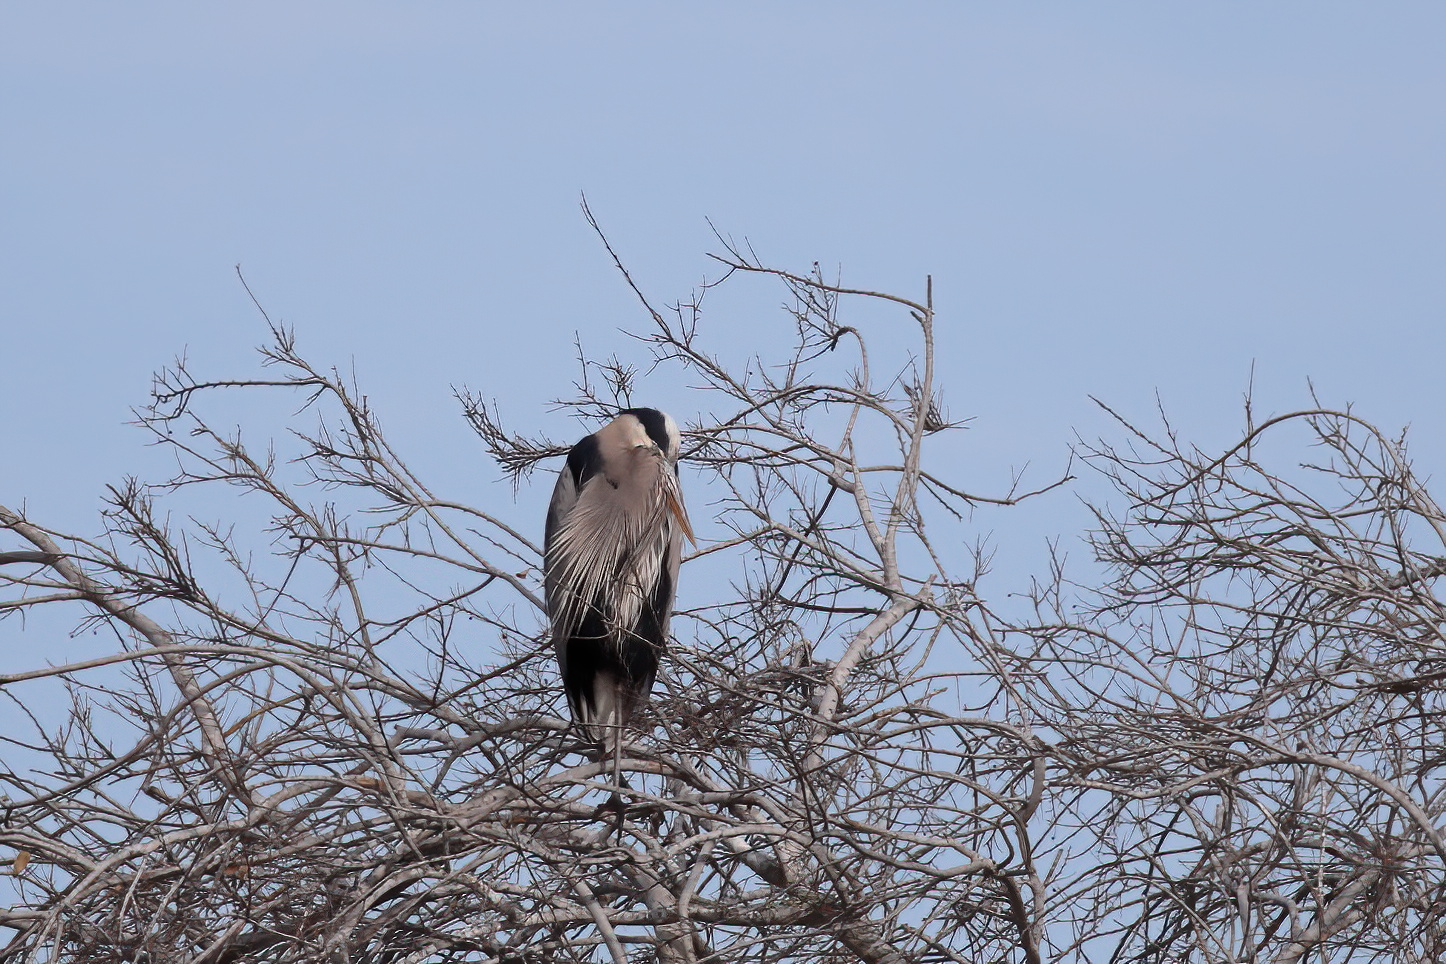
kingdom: Animalia
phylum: Chordata
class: Aves
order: Pelecaniformes
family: Ardeidae
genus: Ardea
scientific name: Ardea herodias
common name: Great blue heron
